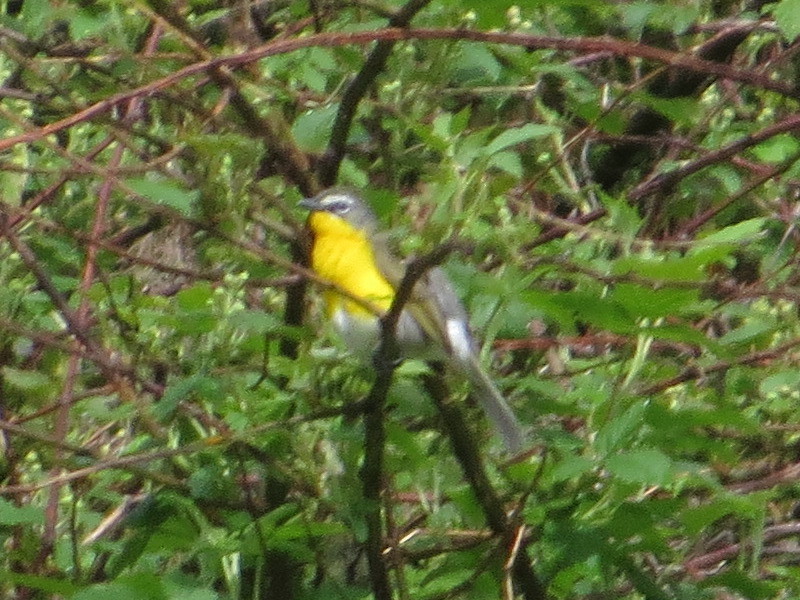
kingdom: Animalia
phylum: Chordata
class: Aves
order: Passeriformes
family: Parulidae
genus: Icteria
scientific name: Icteria virens
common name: Yellow-breasted chat
